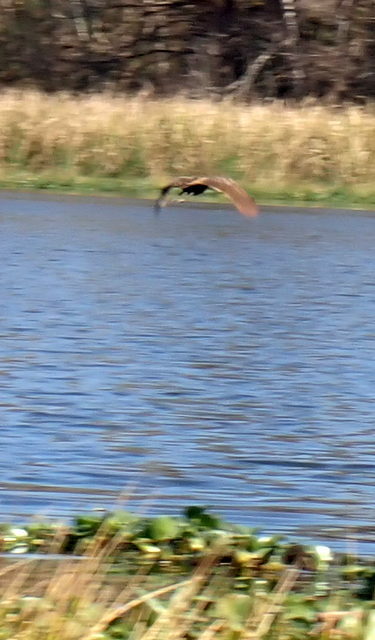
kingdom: Animalia
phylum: Chordata
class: Aves
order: Gruiformes
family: Aramidae
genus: Aramus
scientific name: Aramus guarauna
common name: Limpkin
